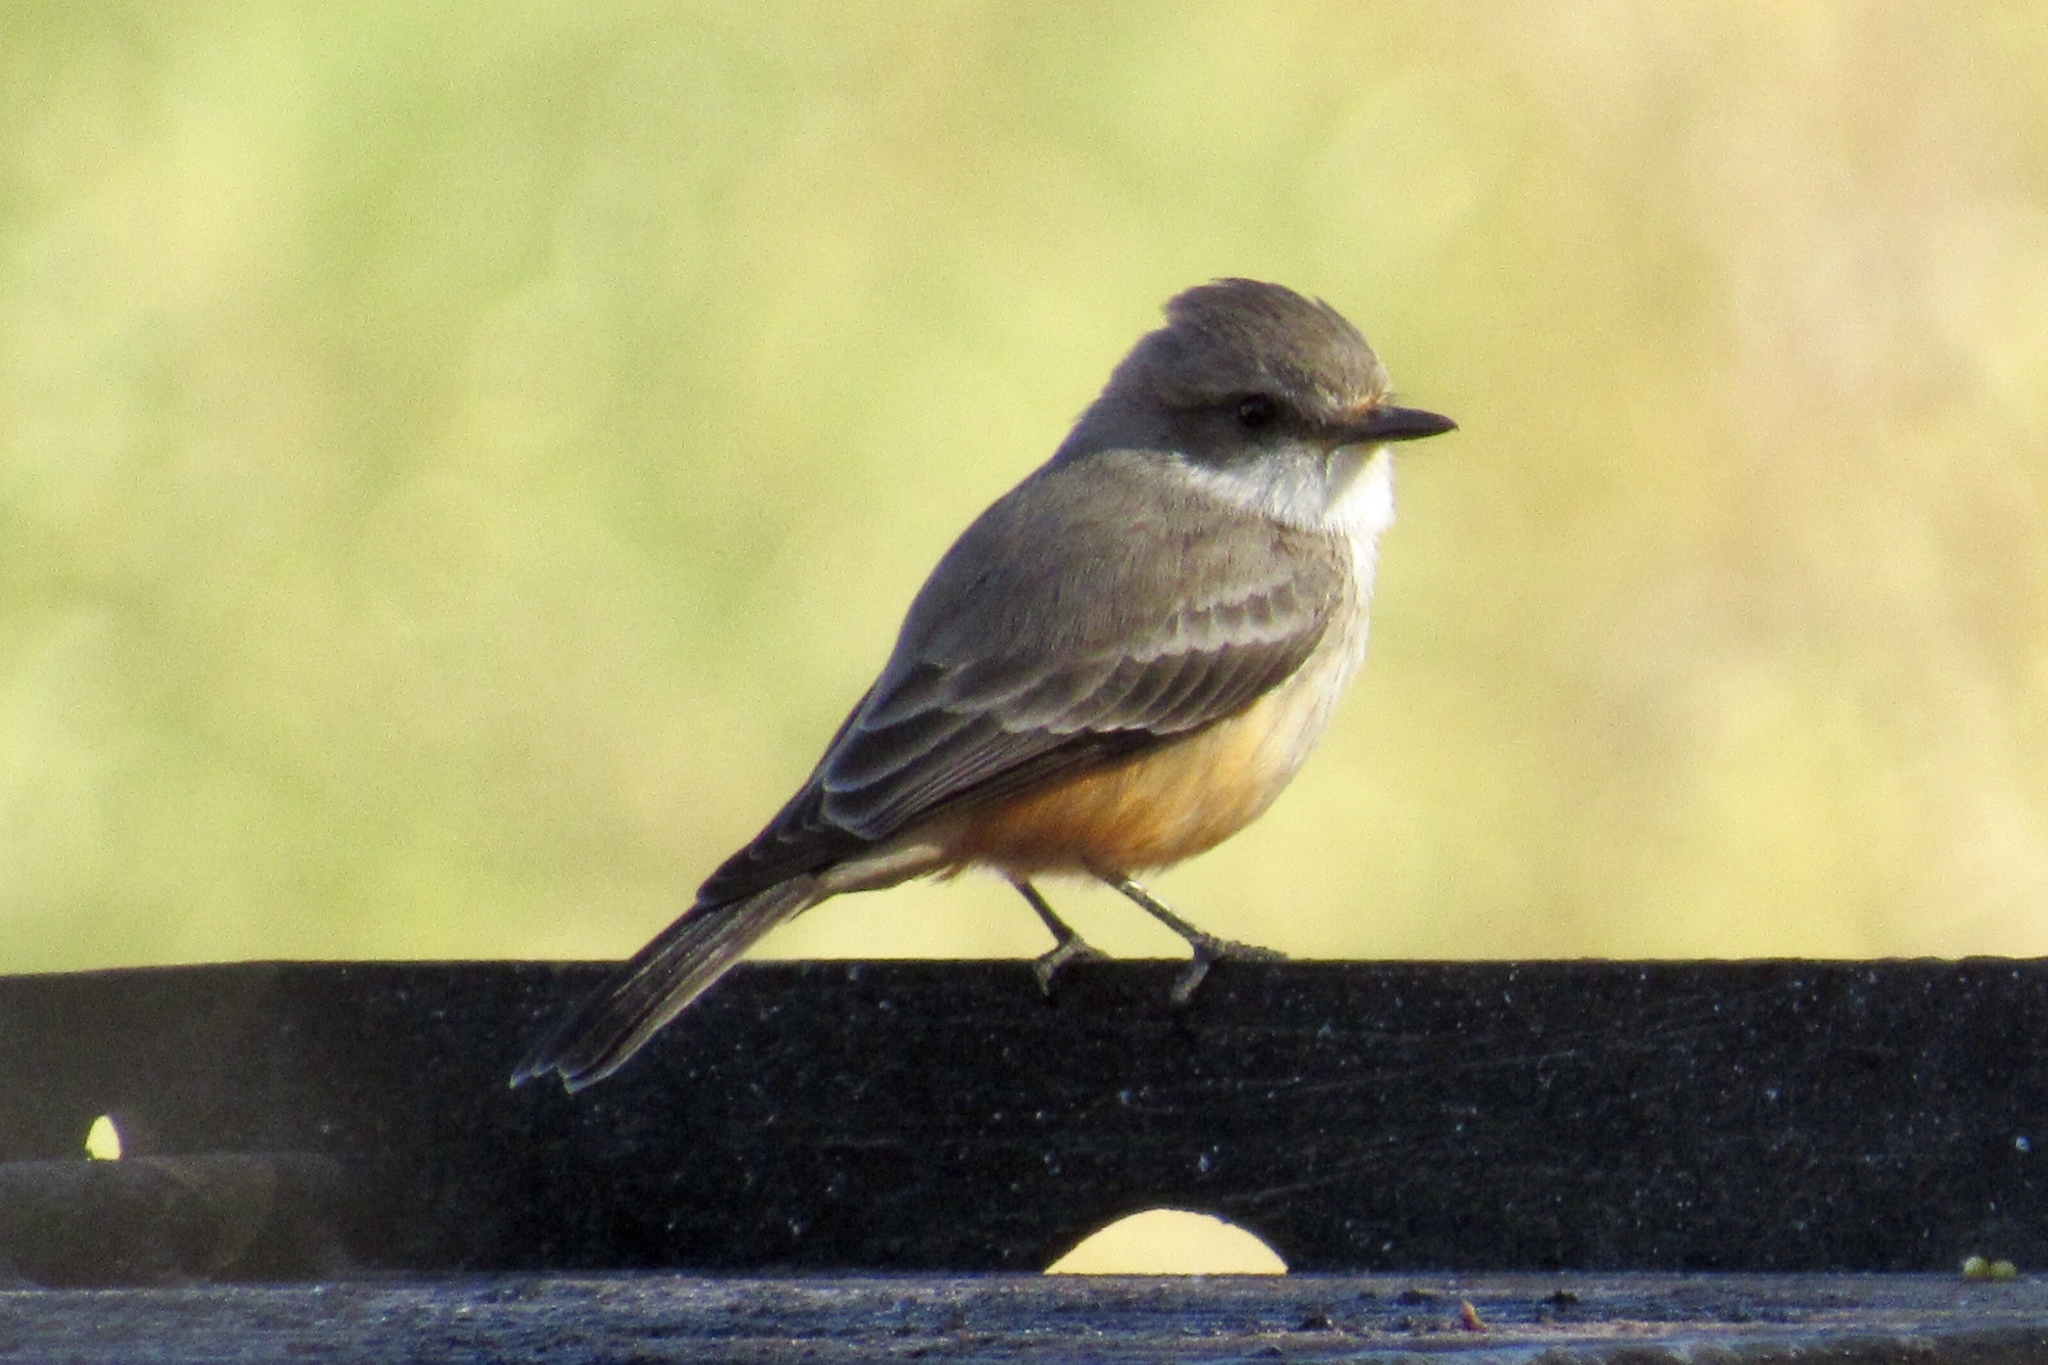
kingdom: Animalia
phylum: Chordata
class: Aves
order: Passeriformes
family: Tyrannidae
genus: Pyrocephalus
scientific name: Pyrocephalus rubinus
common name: Vermilion flycatcher
